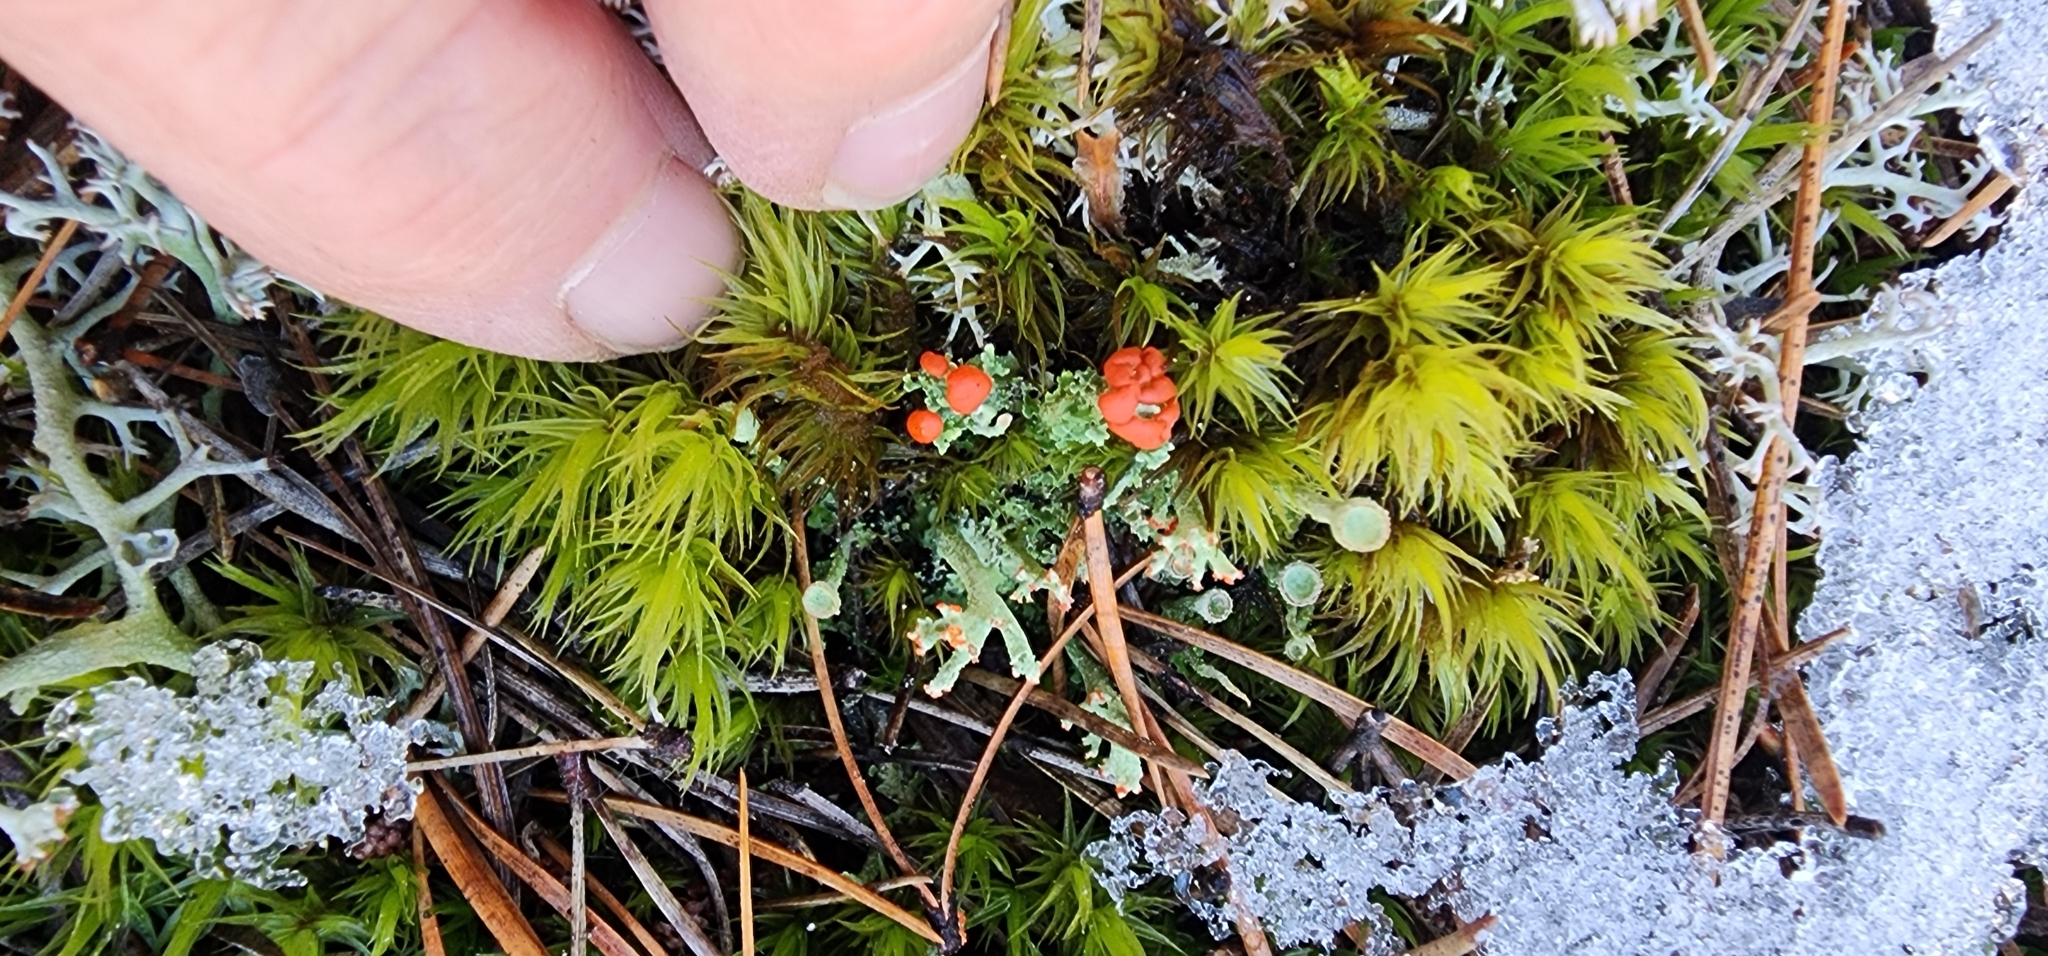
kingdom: Fungi
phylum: Ascomycota
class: Lecanoromycetes
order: Lecanorales
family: Cladoniaceae
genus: Cladonia
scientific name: Cladonia cristatella
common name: British soldier lichen
